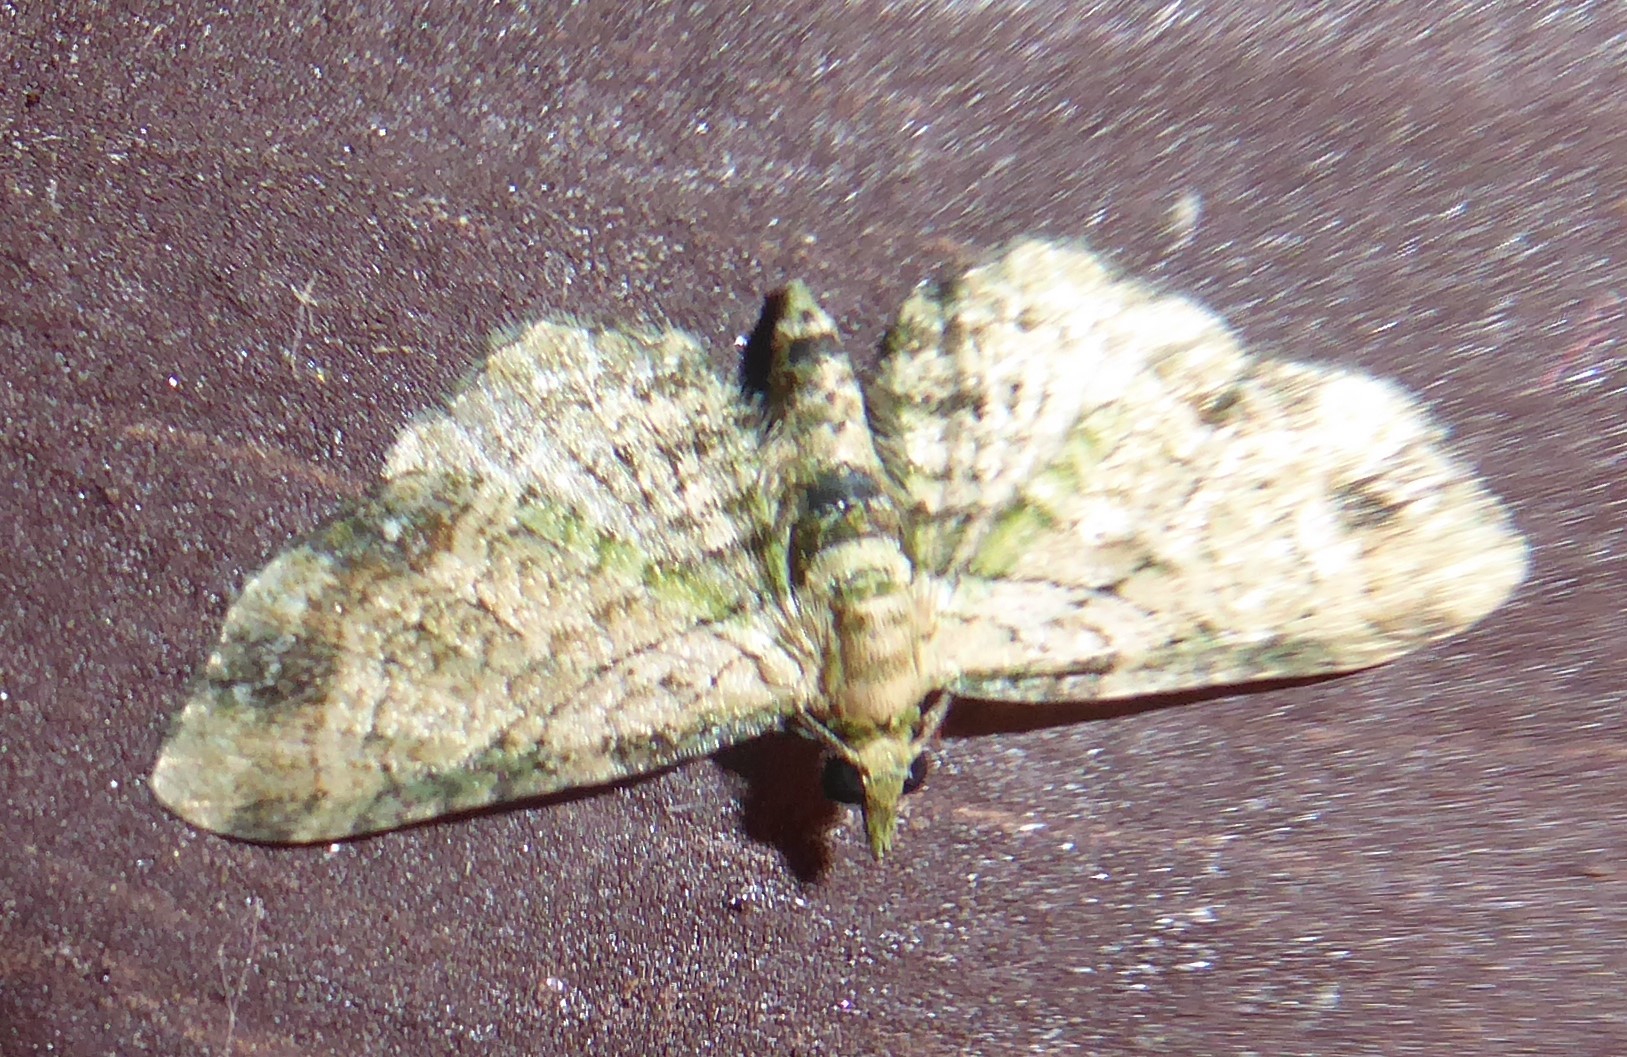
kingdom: Animalia
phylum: Arthropoda
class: Insecta
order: Lepidoptera
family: Geometridae
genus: Chloroclystis
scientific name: Chloroclystis
